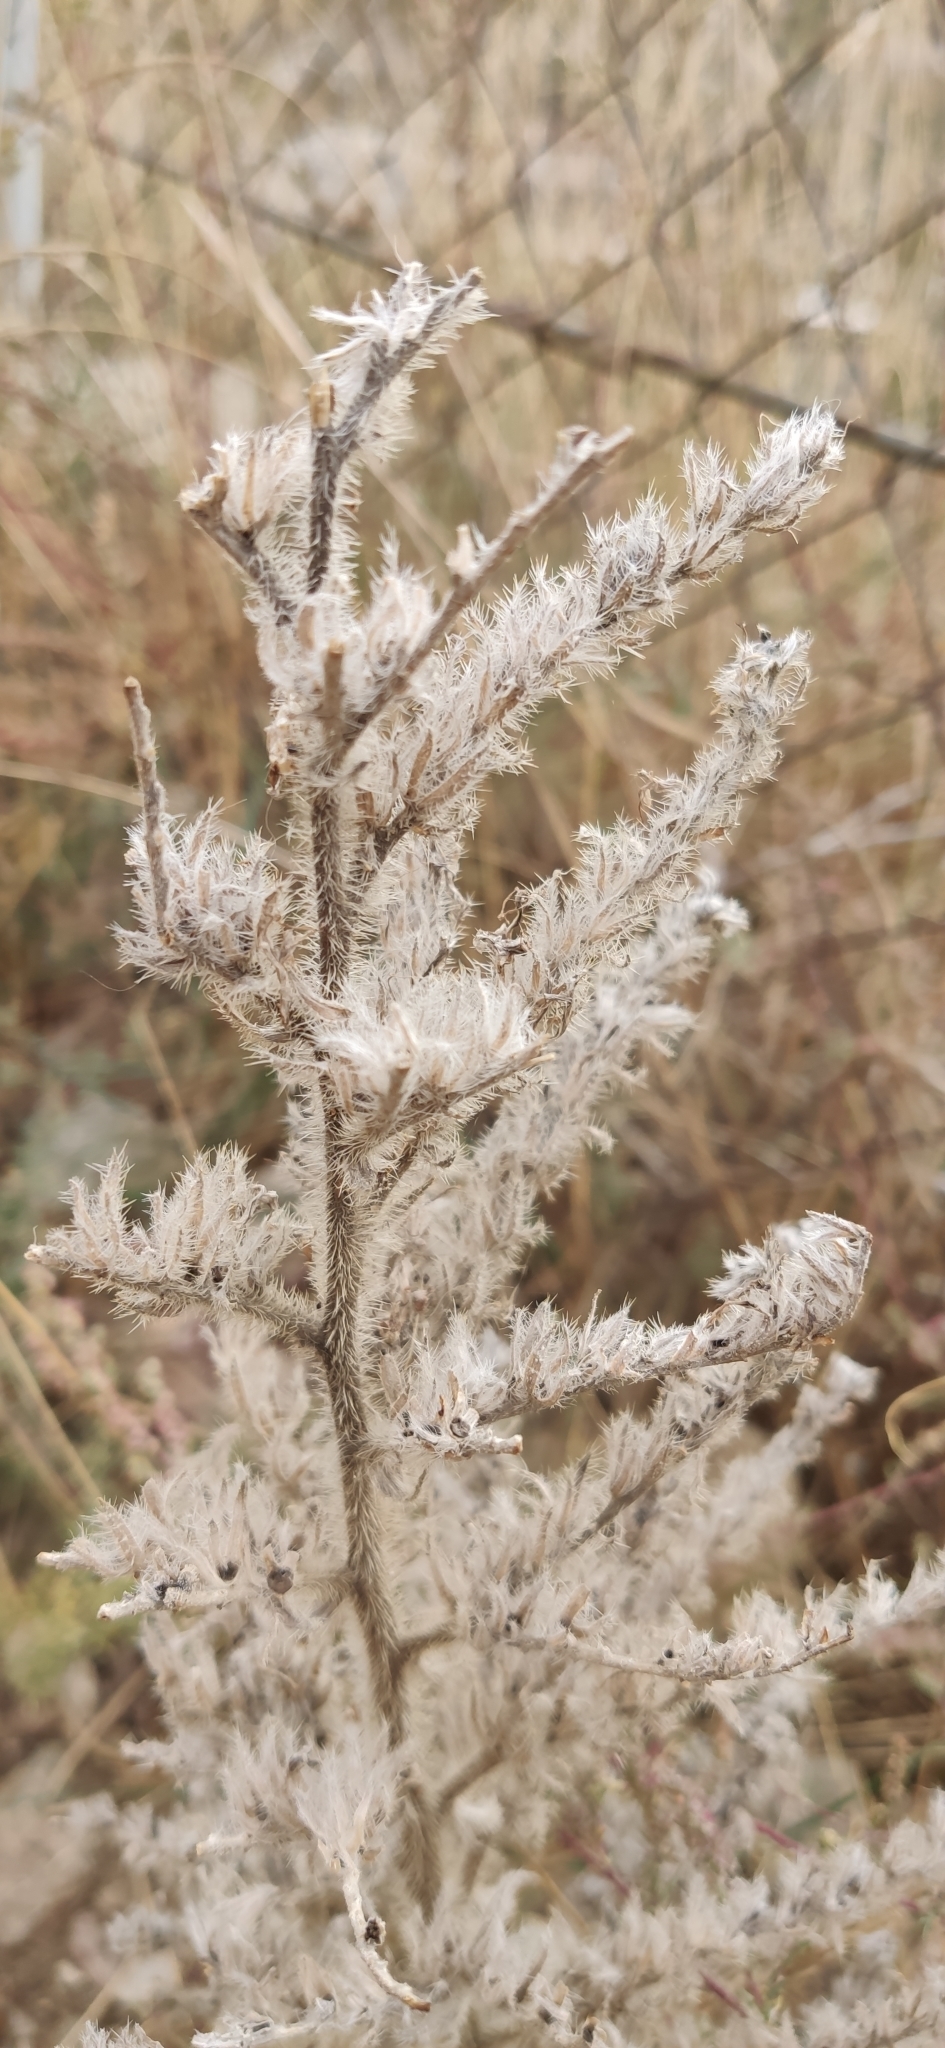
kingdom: Plantae
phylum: Tracheophyta
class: Magnoliopsida
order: Boraginales
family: Boraginaceae
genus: Echium
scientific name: Echium italicum
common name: Italian viper's bugloss
